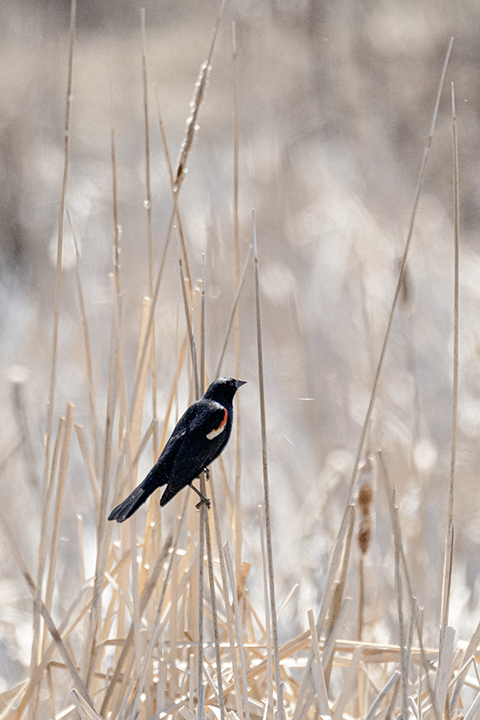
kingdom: Animalia
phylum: Chordata
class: Aves
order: Passeriformes
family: Icteridae
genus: Agelaius
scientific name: Agelaius phoeniceus
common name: Red-winged blackbird
